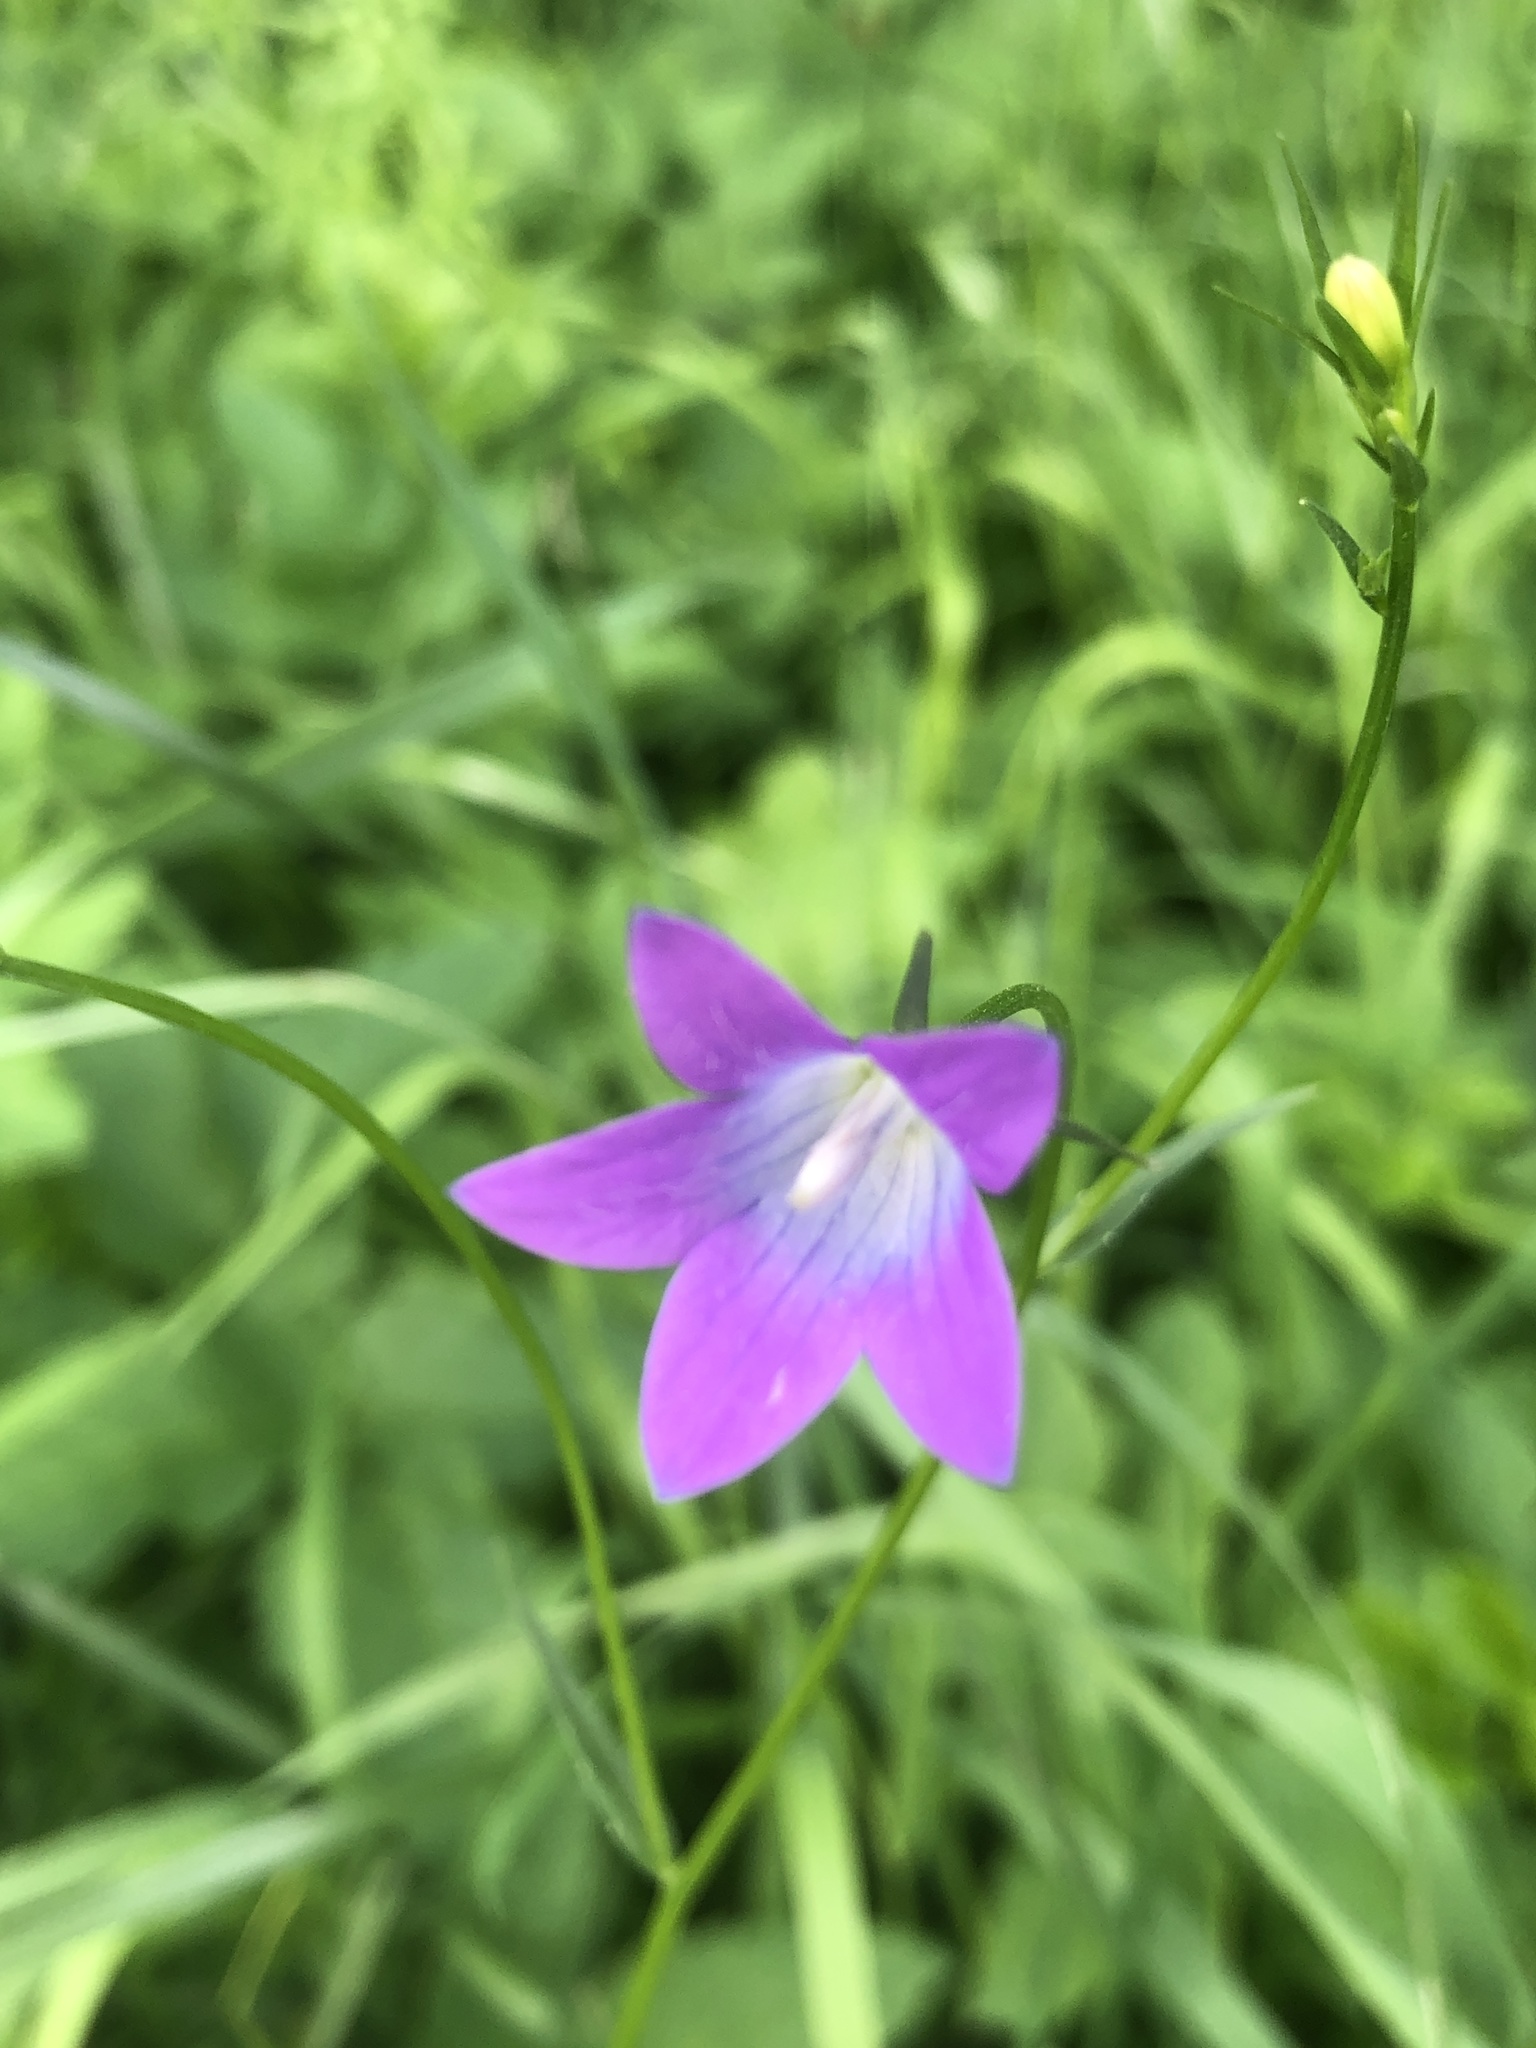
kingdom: Plantae
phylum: Tracheophyta
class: Magnoliopsida
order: Asterales
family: Campanulaceae
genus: Campanula
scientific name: Campanula patula
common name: Spreading bellflower
